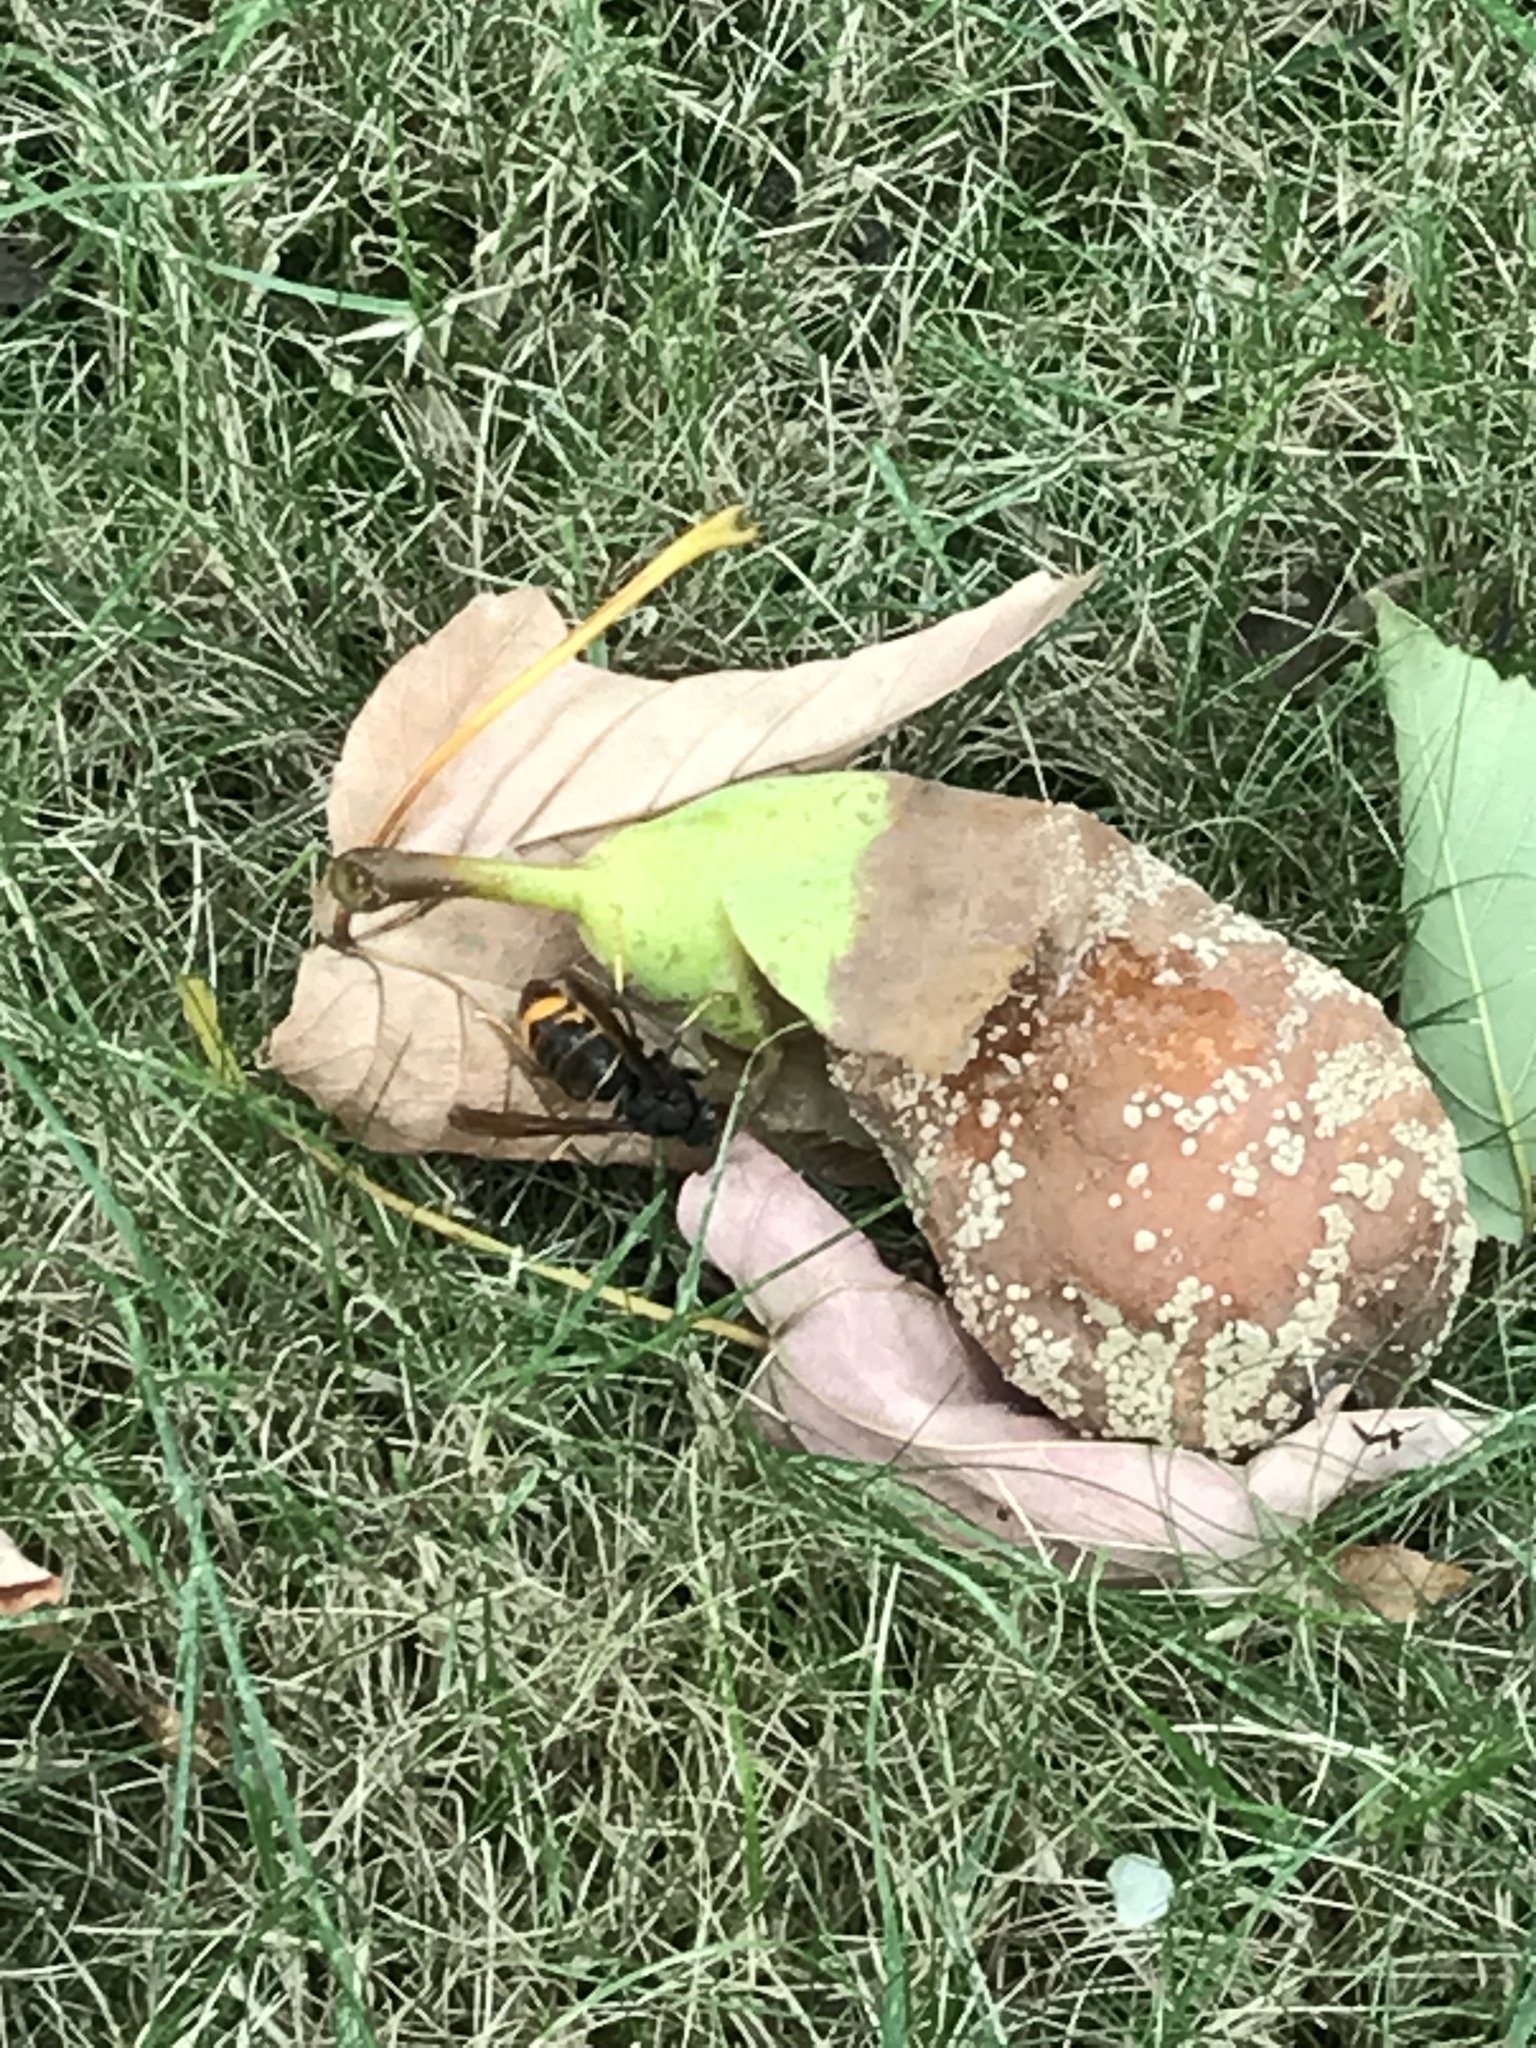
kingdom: Animalia
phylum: Arthropoda
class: Insecta
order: Hymenoptera
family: Vespidae
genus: Vespa
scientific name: Vespa velutina
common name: Asian hornet
